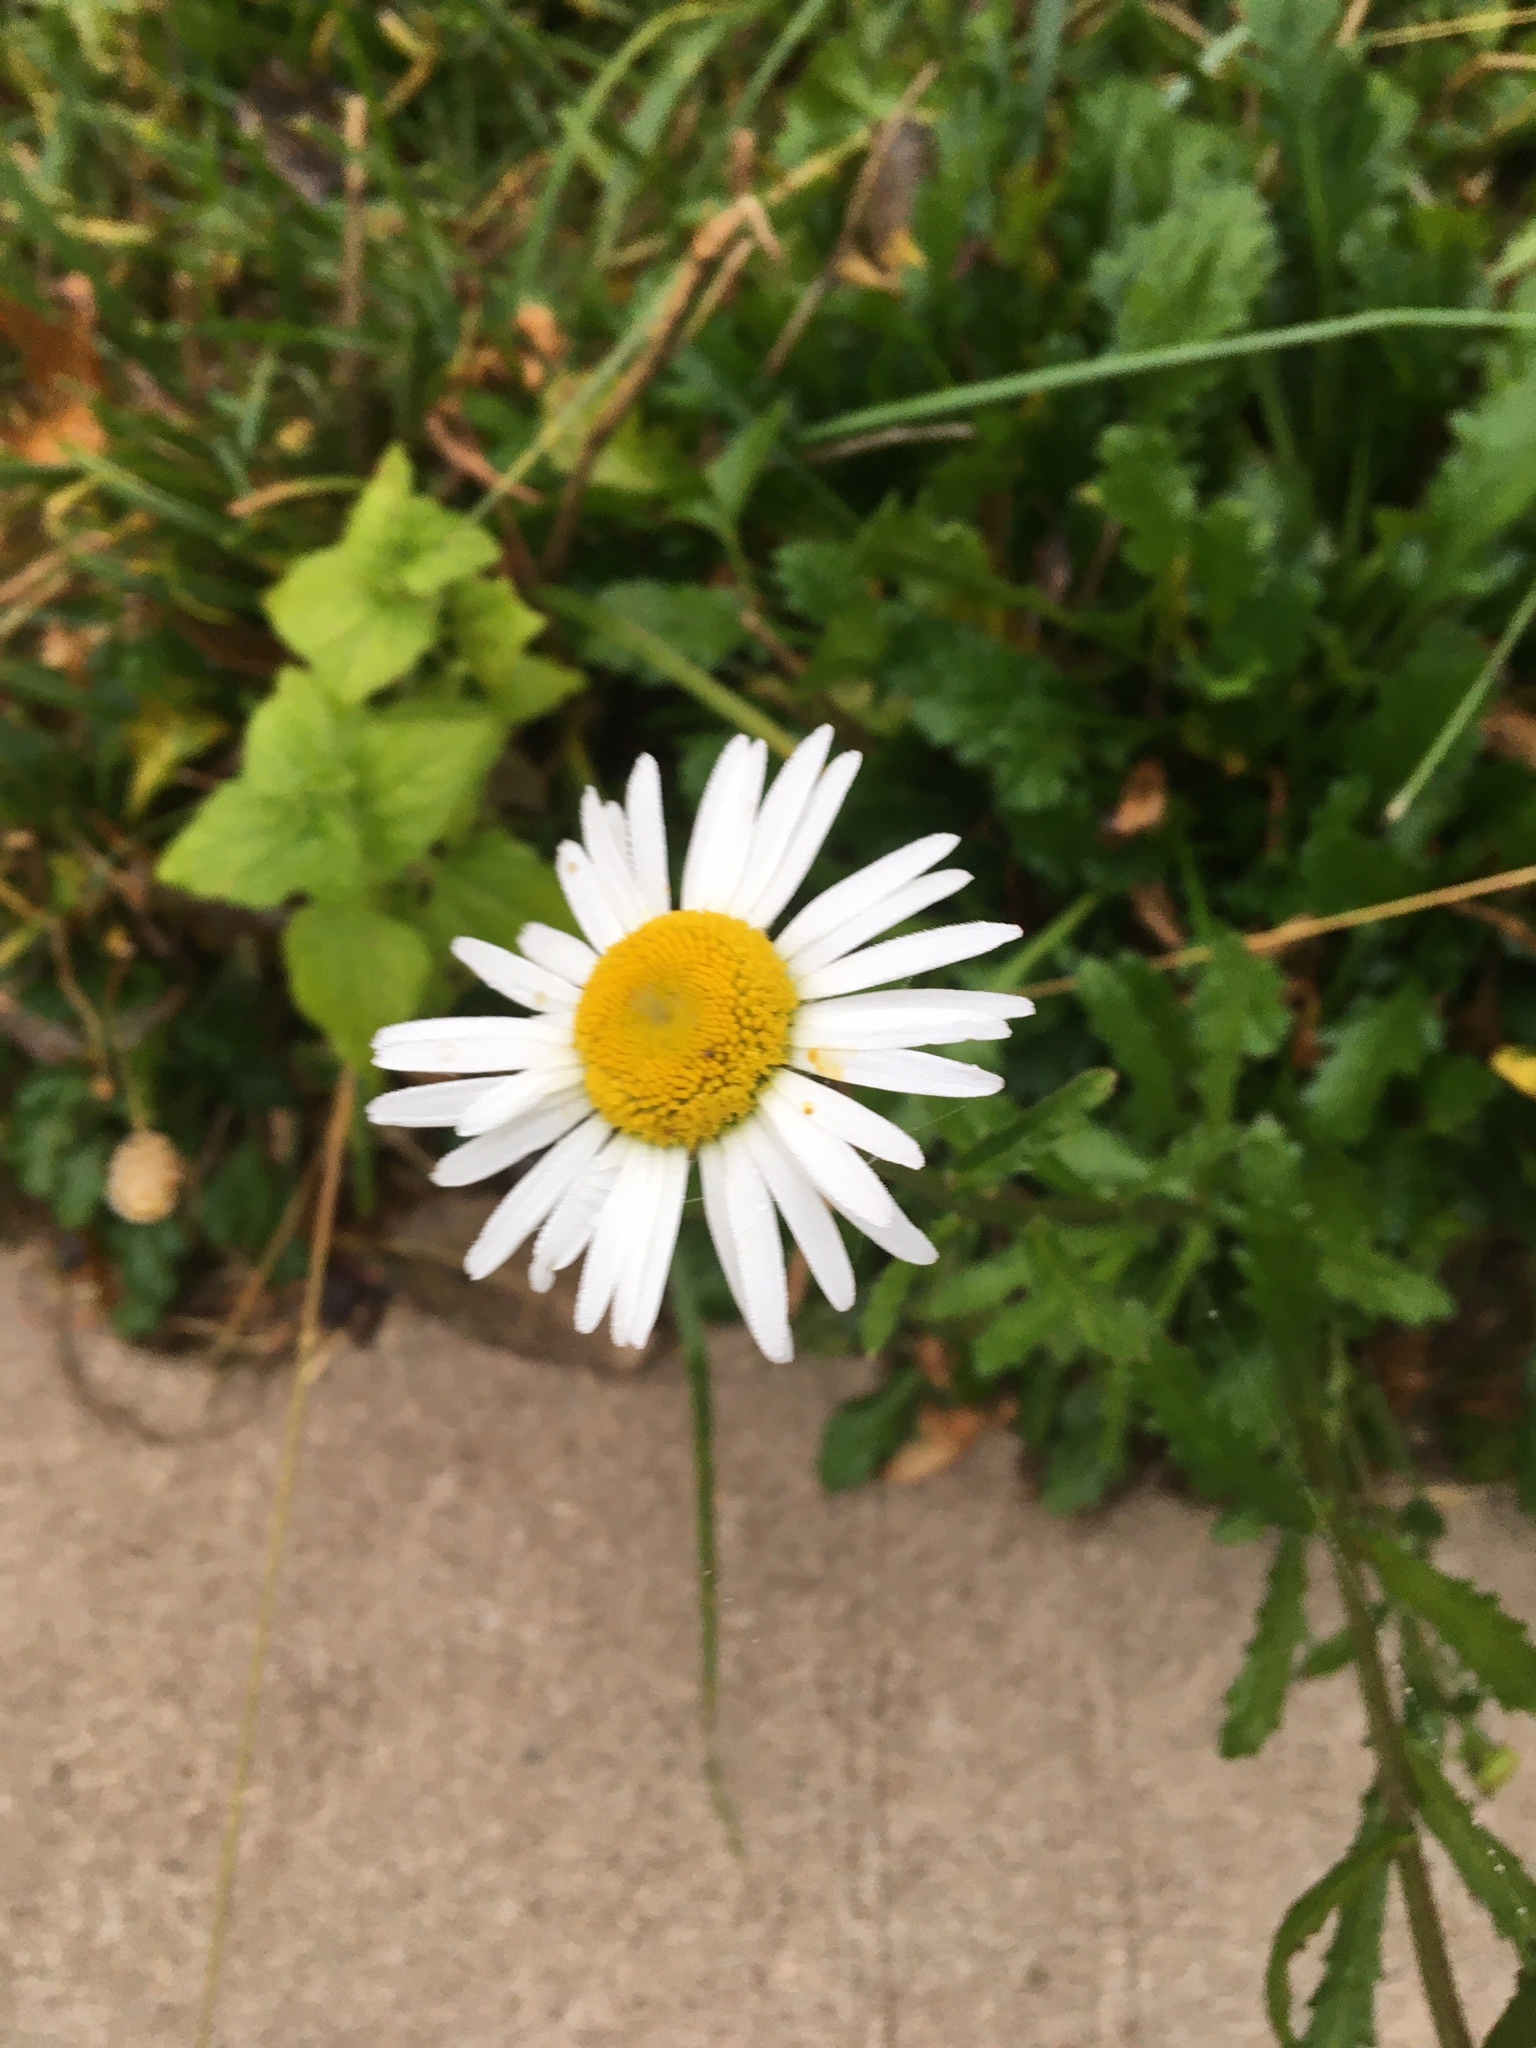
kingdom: Plantae
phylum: Tracheophyta
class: Magnoliopsida
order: Asterales
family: Asteraceae
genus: Leucanthemum
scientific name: Leucanthemum vulgare
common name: Oxeye daisy
